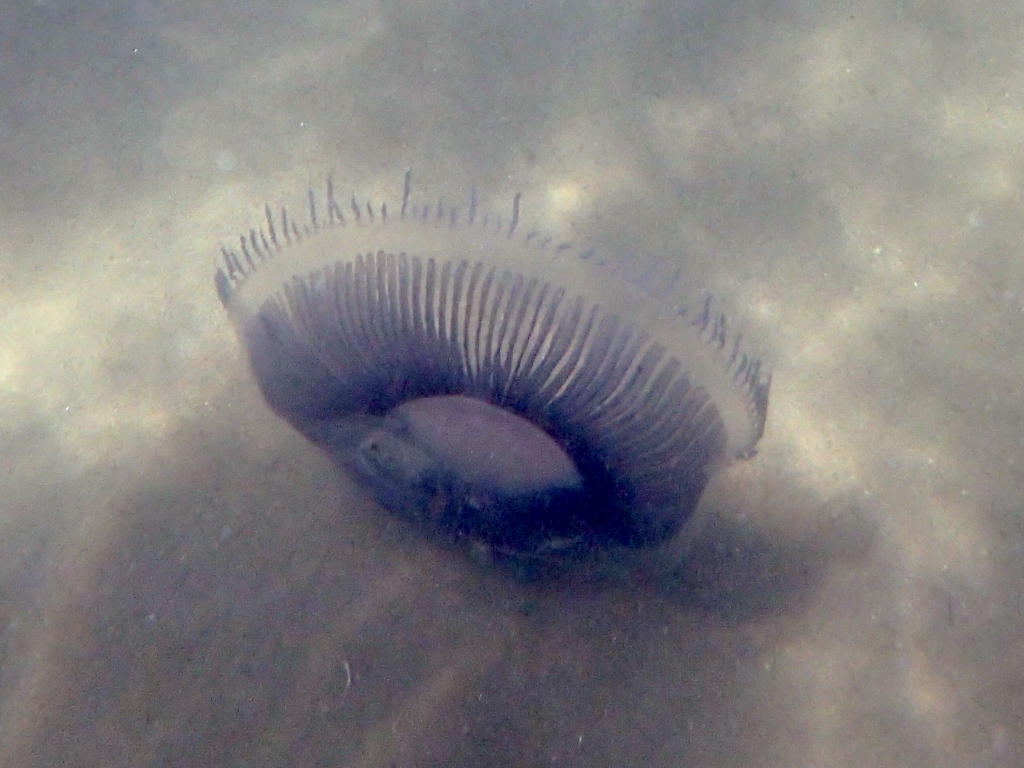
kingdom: Animalia
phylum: Cnidaria
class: Hydrozoa
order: Leptothecata
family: Aequoreidae
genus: Aequorea
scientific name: Aequorea forskalea
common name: Many-ribbed jellyfish
